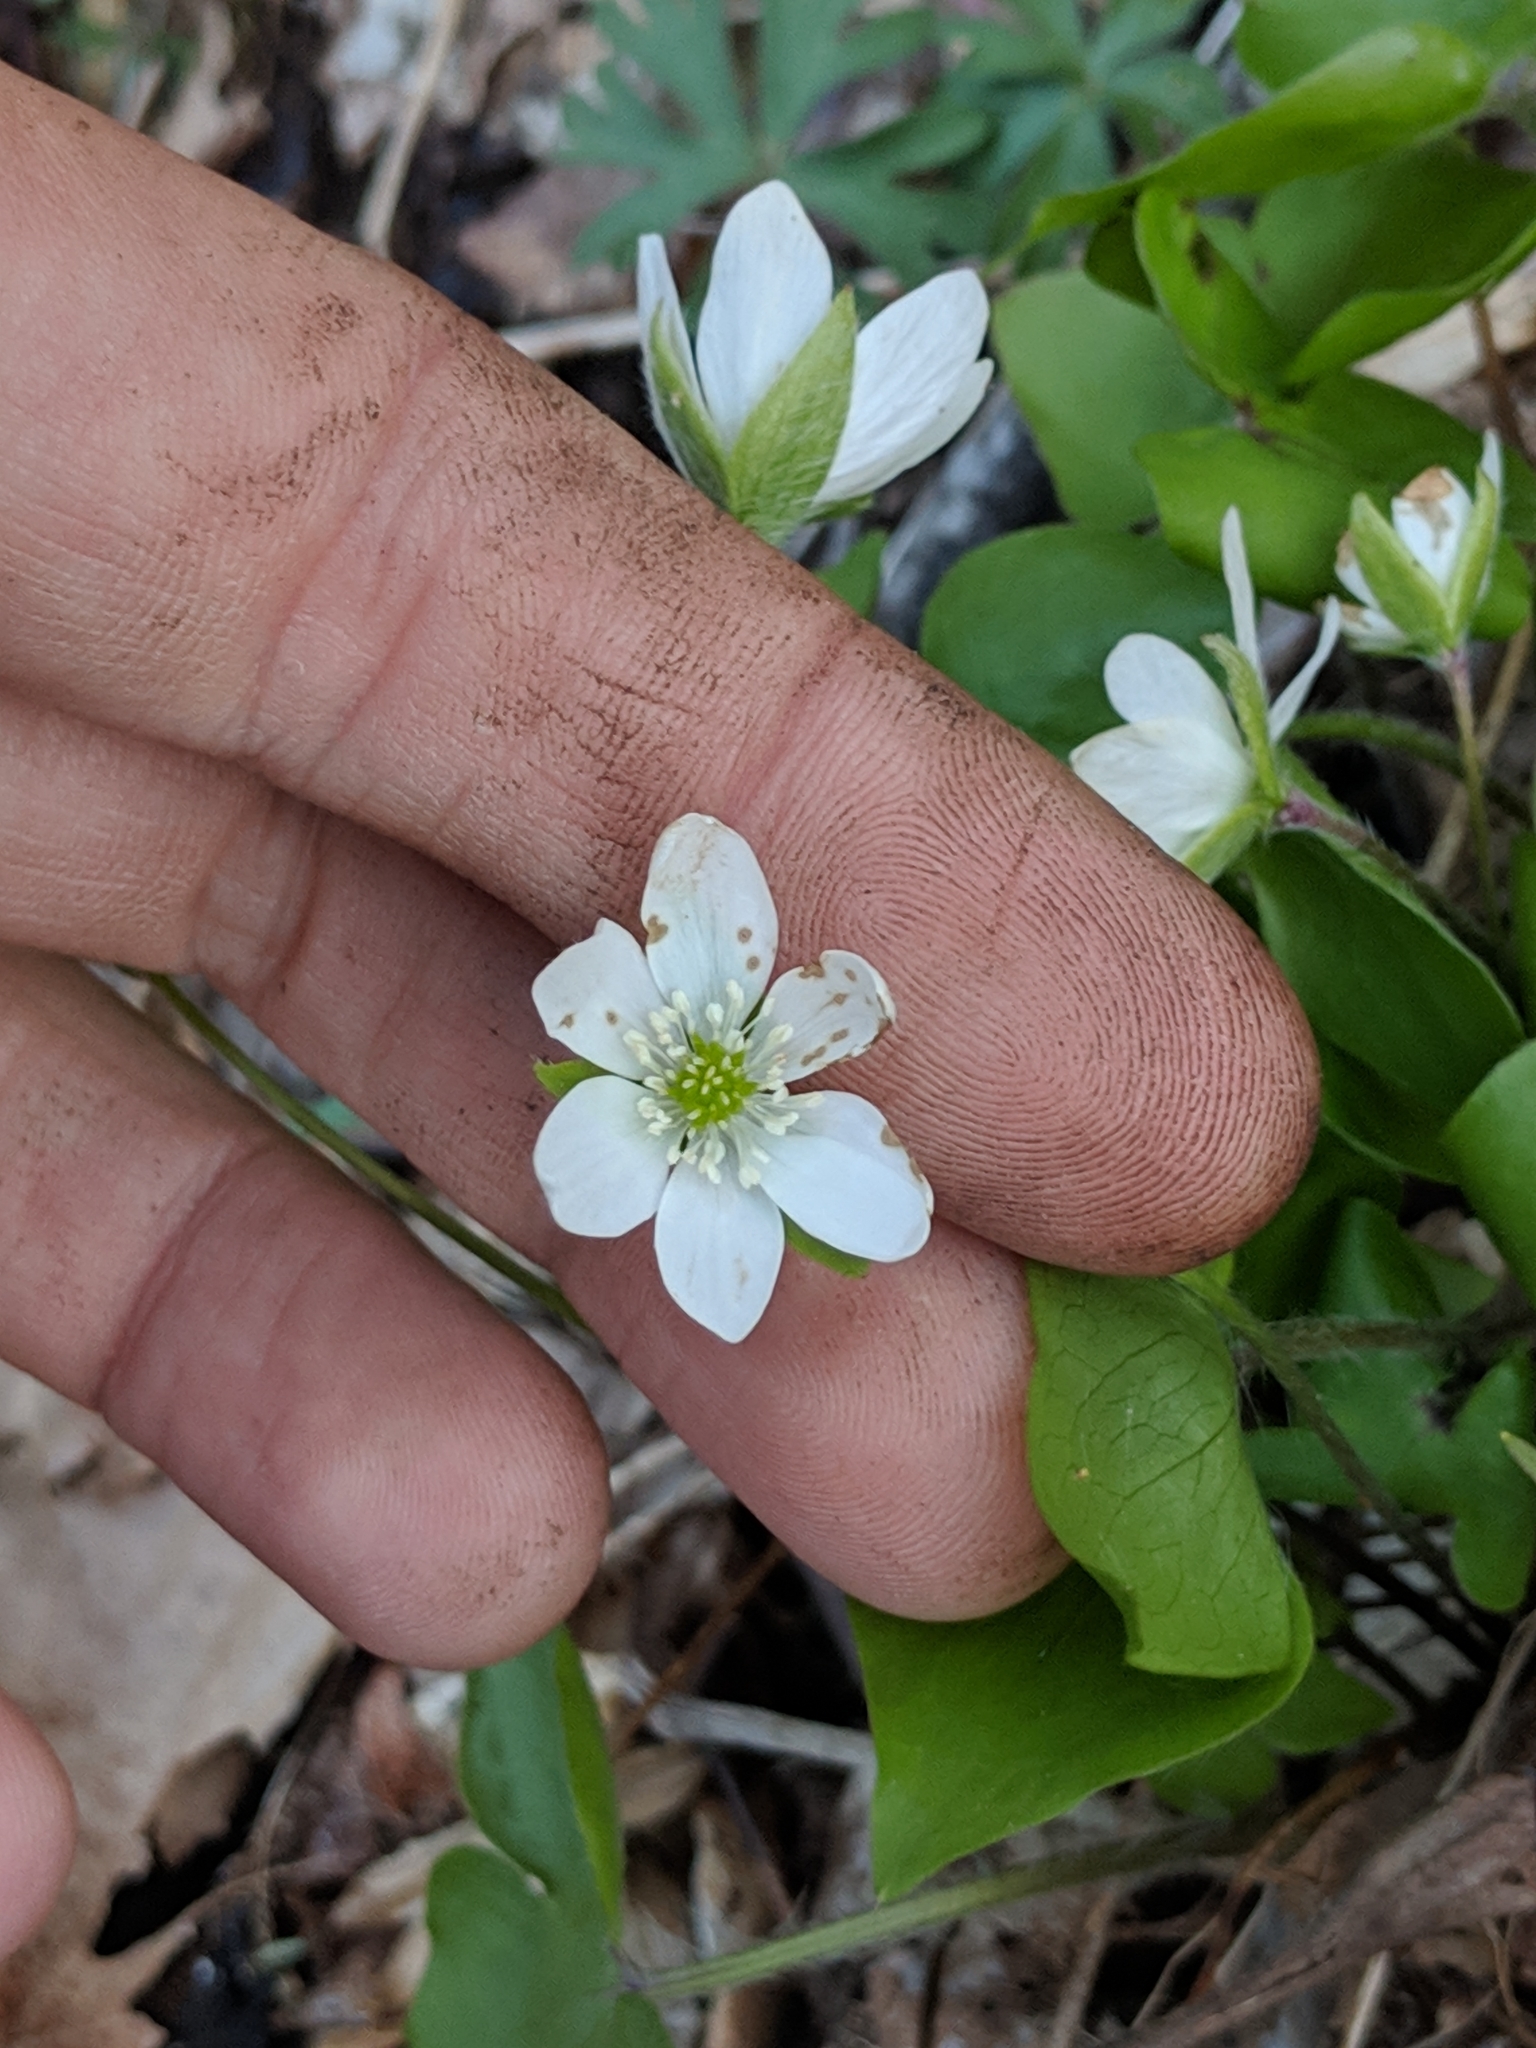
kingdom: Plantae
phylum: Tracheophyta
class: Magnoliopsida
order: Ranunculales
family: Ranunculaceae
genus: Hepatica
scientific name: Hepatica acutiloba
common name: Sharp-lobed hepatica
